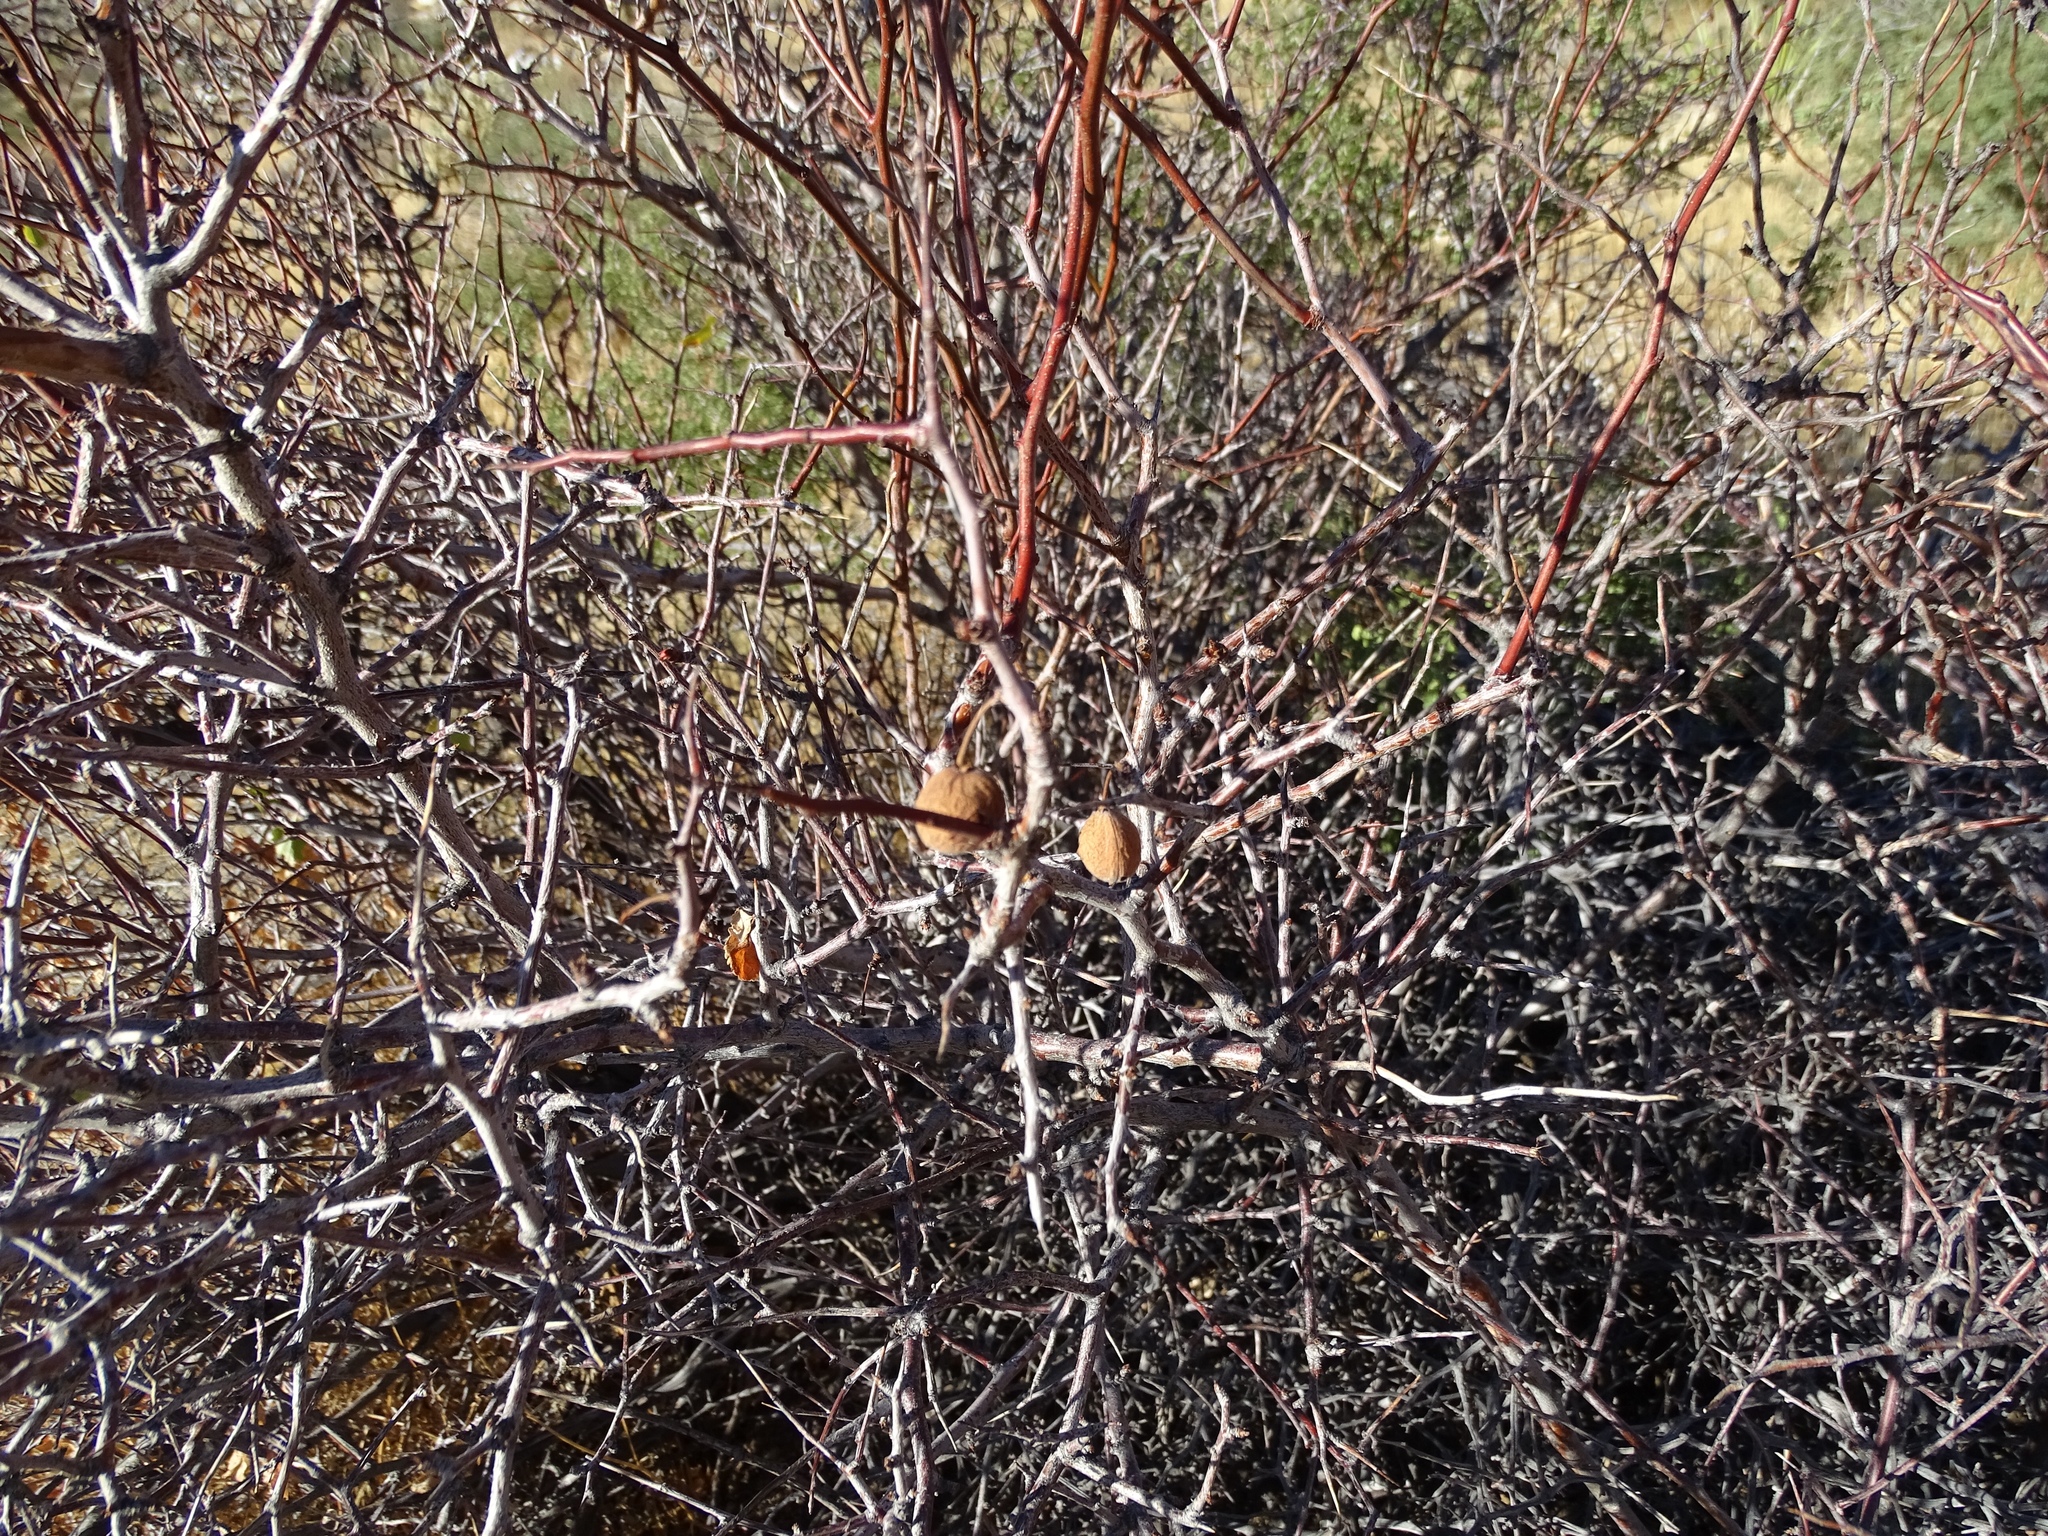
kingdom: Plantae
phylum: Tracheophyta
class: Magnoliopsida
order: Rosales
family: Rosaceae
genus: Prunus
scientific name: Prunus fremontii
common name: Desert apricot
